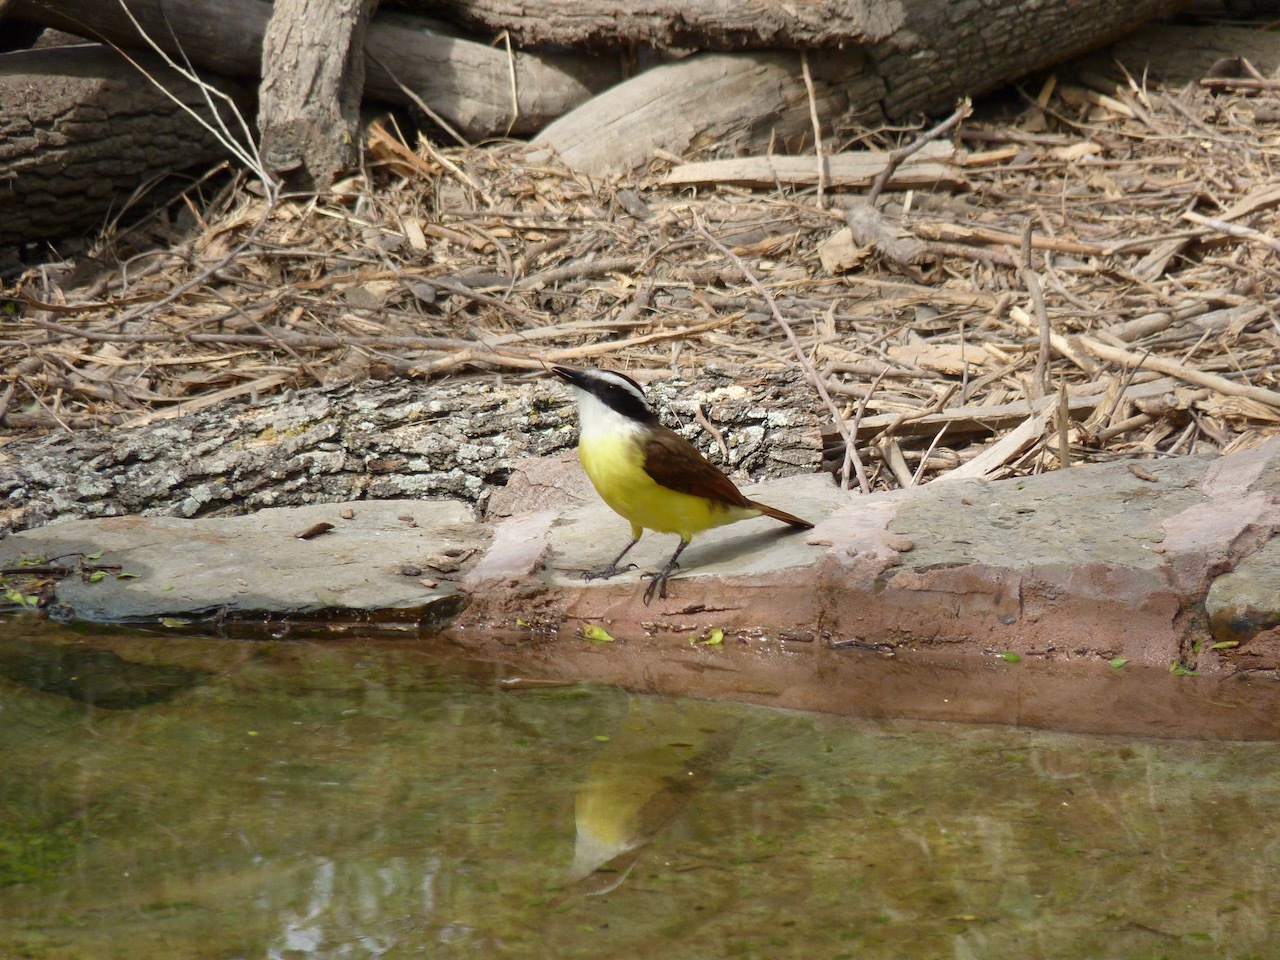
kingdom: Animalia
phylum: Chordata
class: Aves
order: Passeriformes
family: Tyrannidae
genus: Pitangus
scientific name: Pitangus sulphuratus
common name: Great kiskadee
